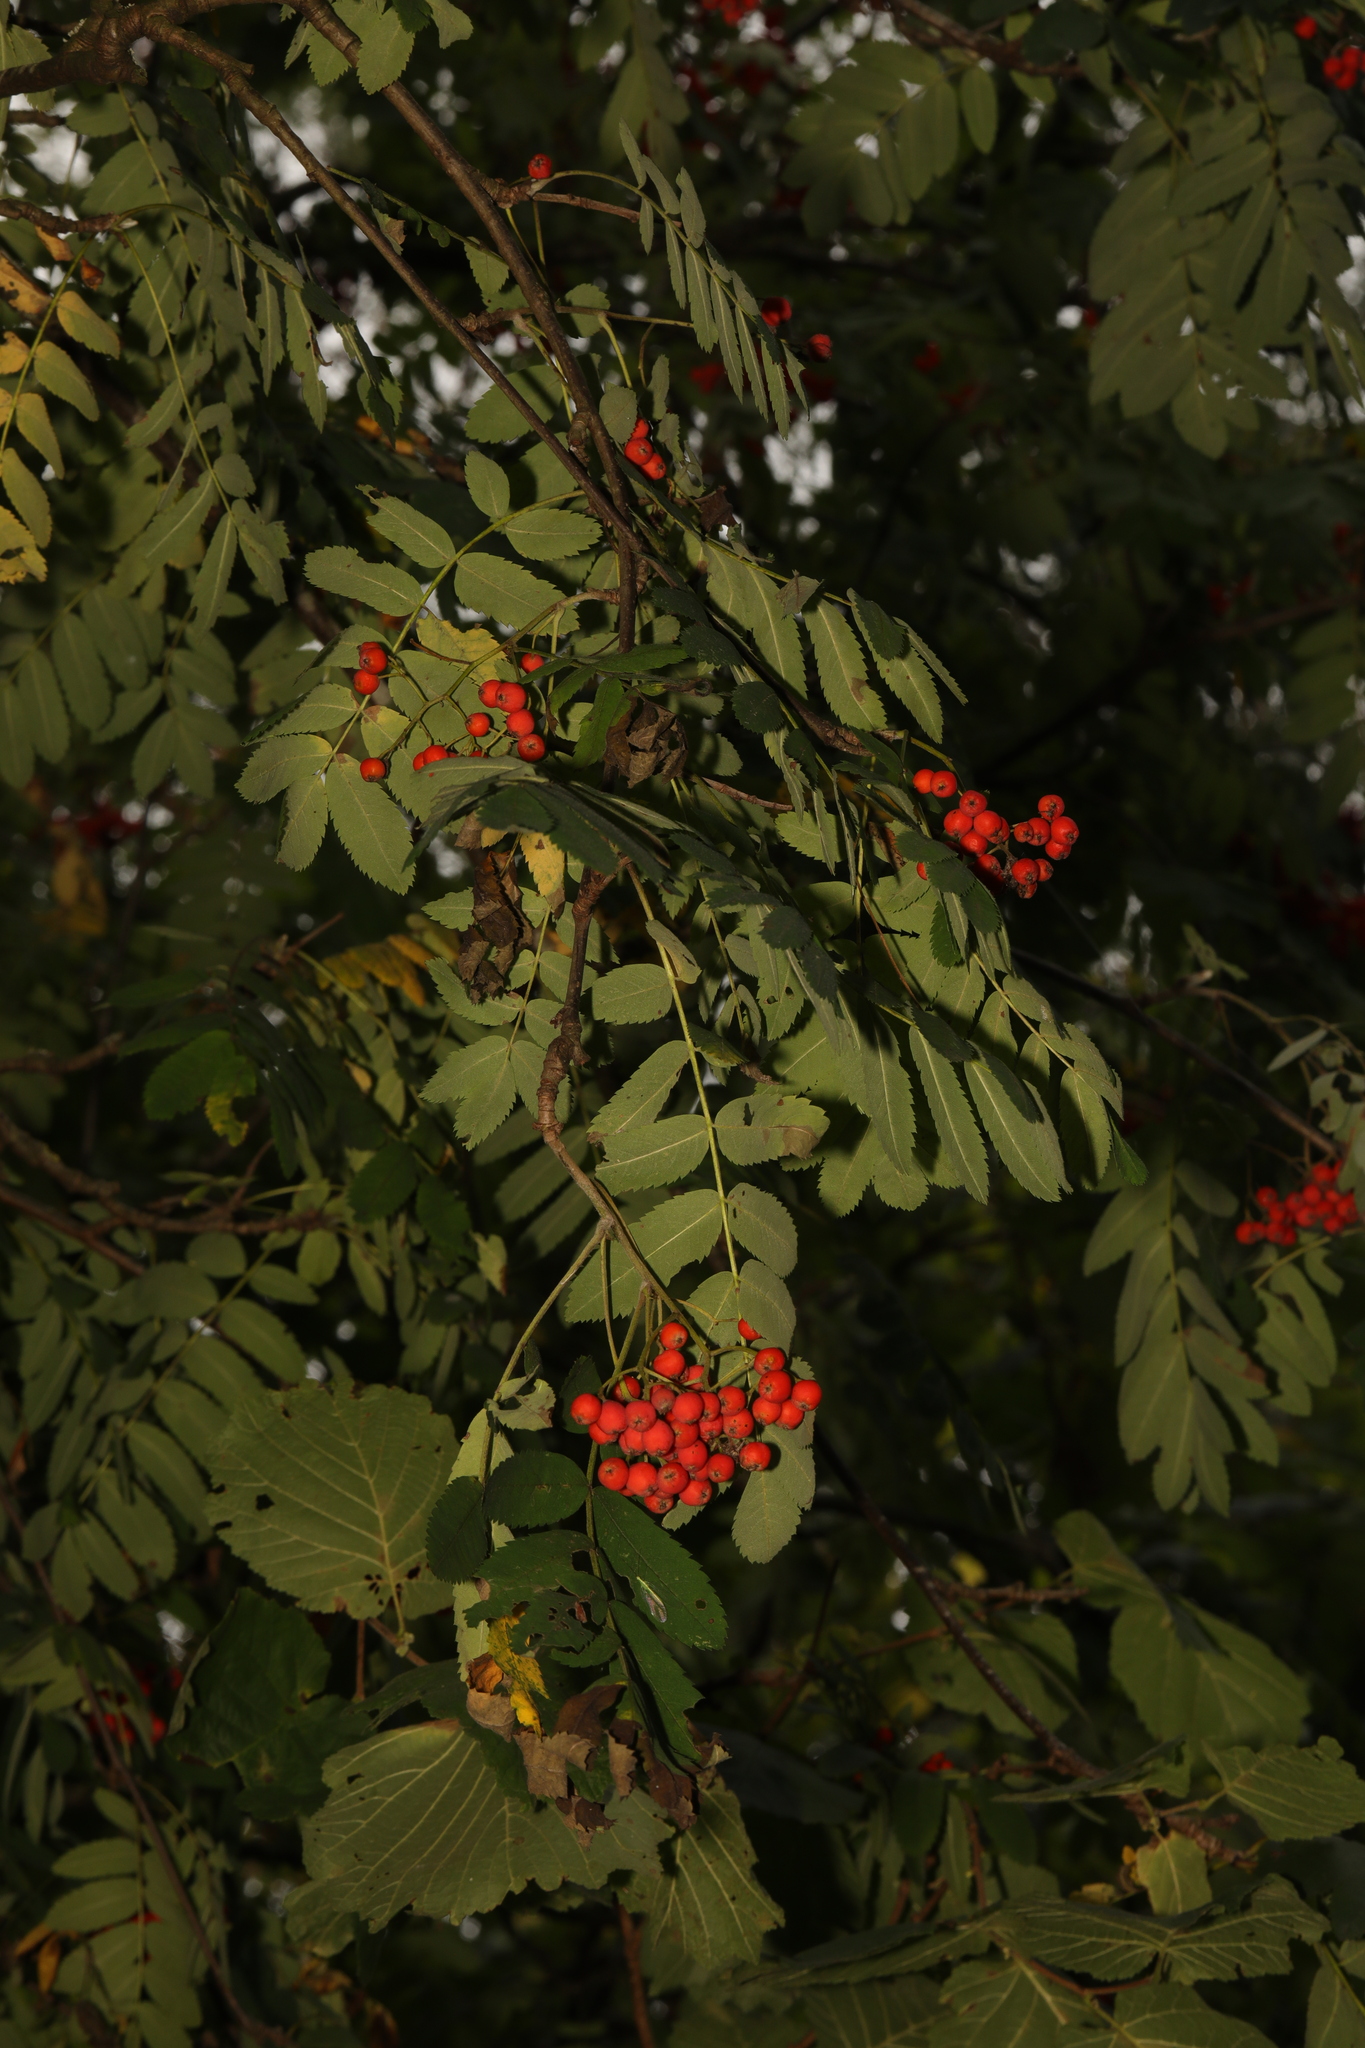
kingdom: Plantae
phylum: Tracheophyta
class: Magnoliopsida
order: Rosales
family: Rosaceae
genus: Sorbus
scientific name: Sorbus aucuparia
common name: Rowan
